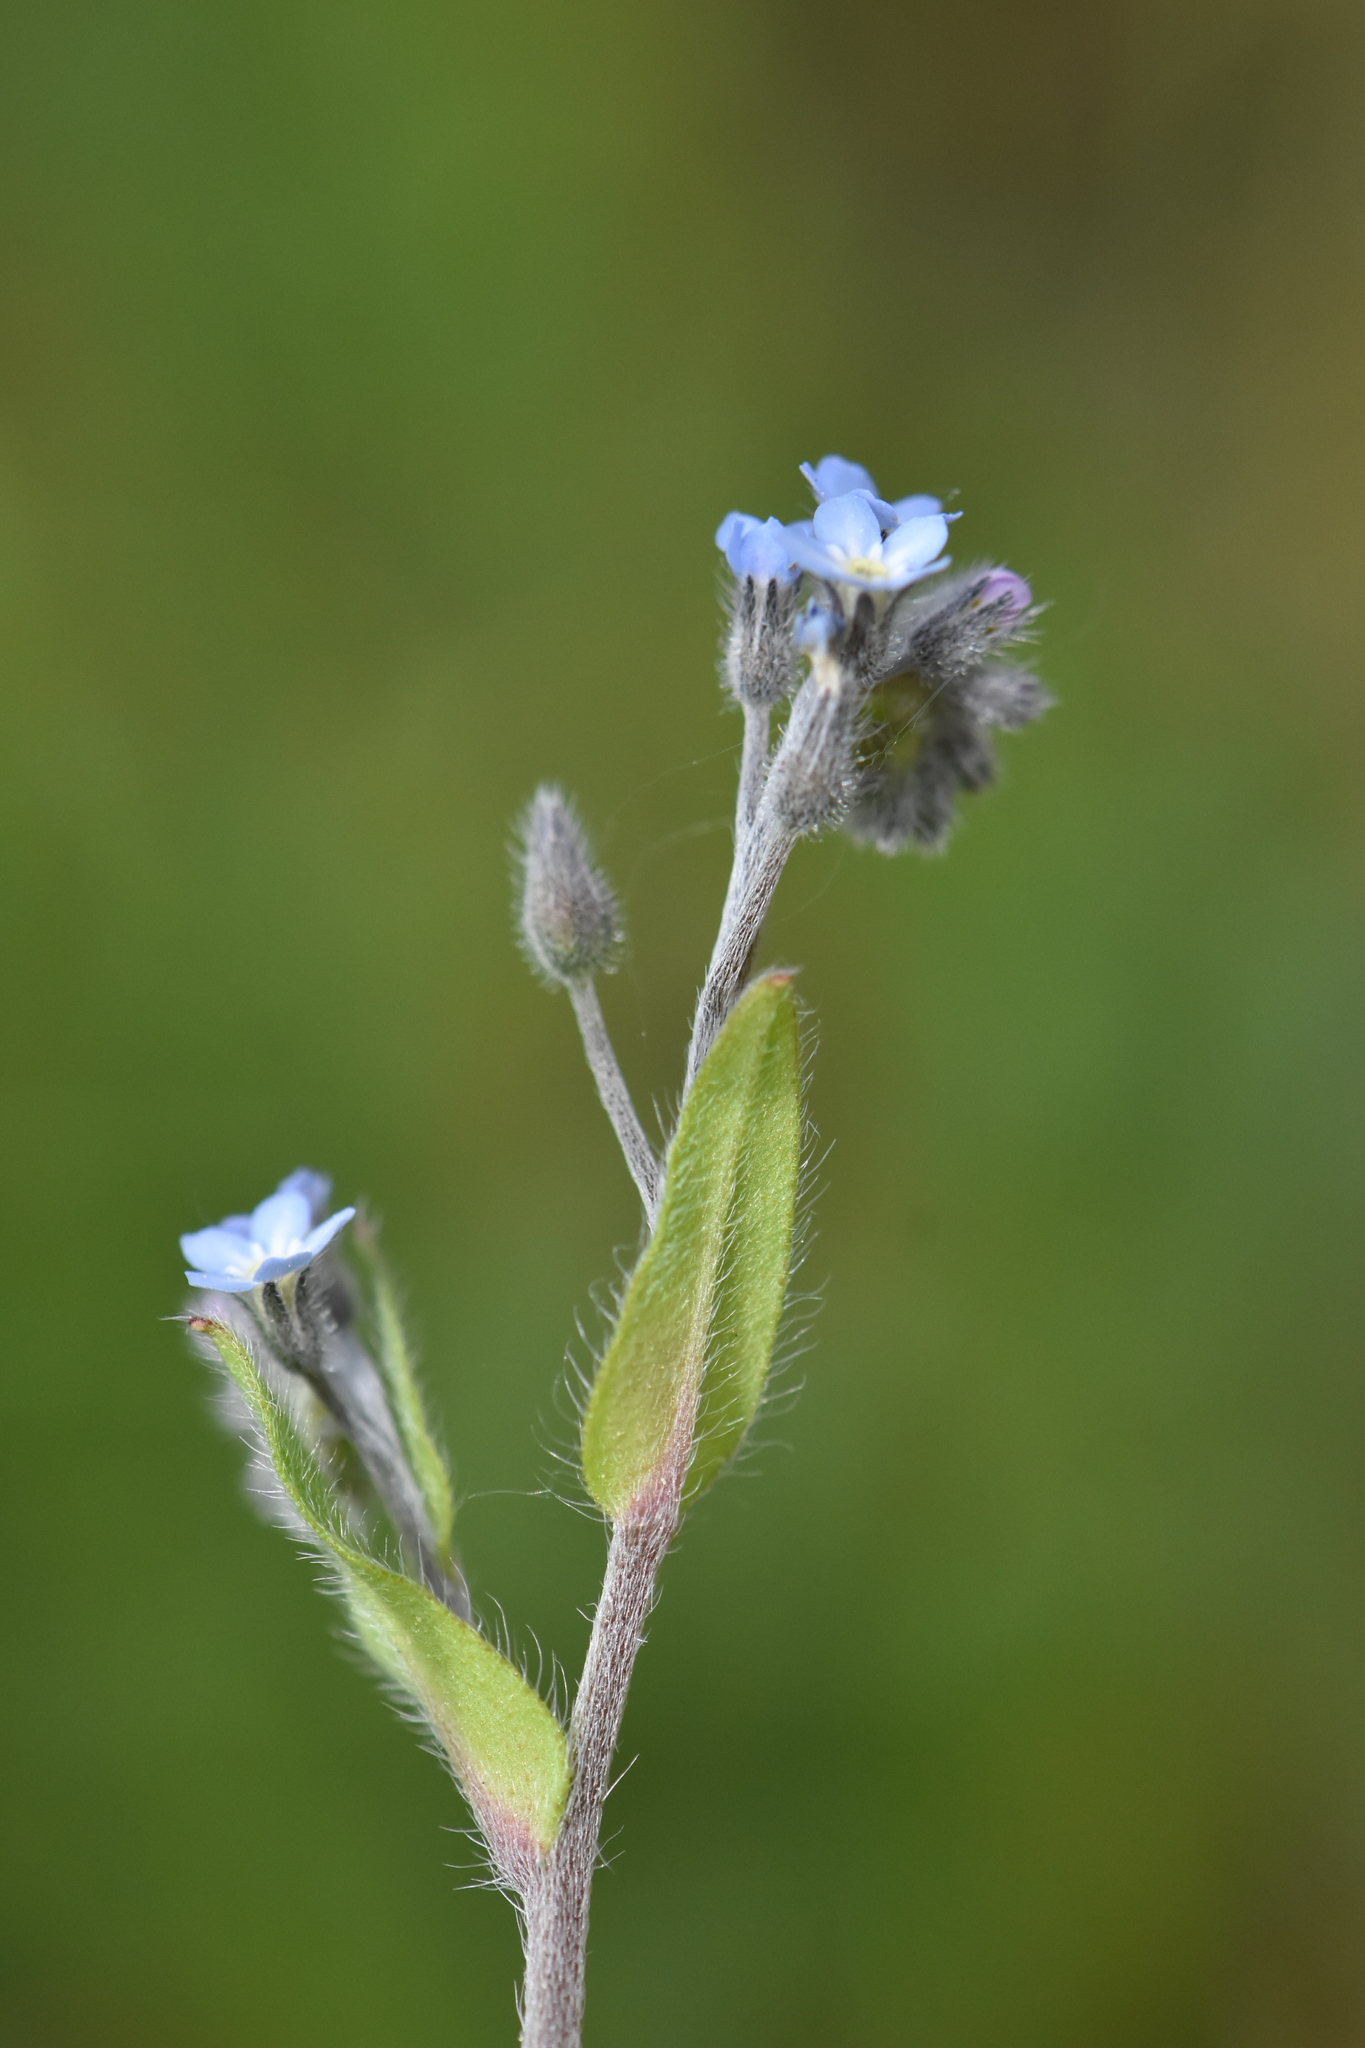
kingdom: Plantae
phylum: Tracheophyta
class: Magnoliopsida
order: Boraginales
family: Boraginaceae
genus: Myosotis
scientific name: Myosotis arvensis
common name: Field forget-me-not
